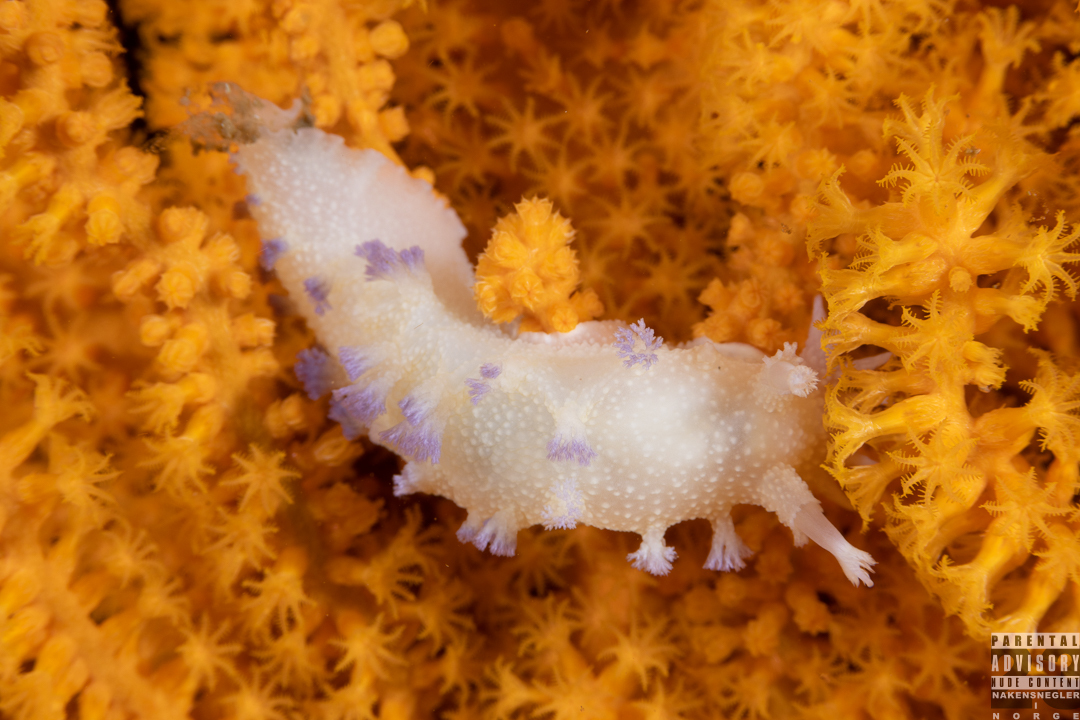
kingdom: Animalia
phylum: Mollusca
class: Gastropoda
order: Nudibranchia
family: Tritoniidae
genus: Tritonia
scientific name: Tritonia griegi
